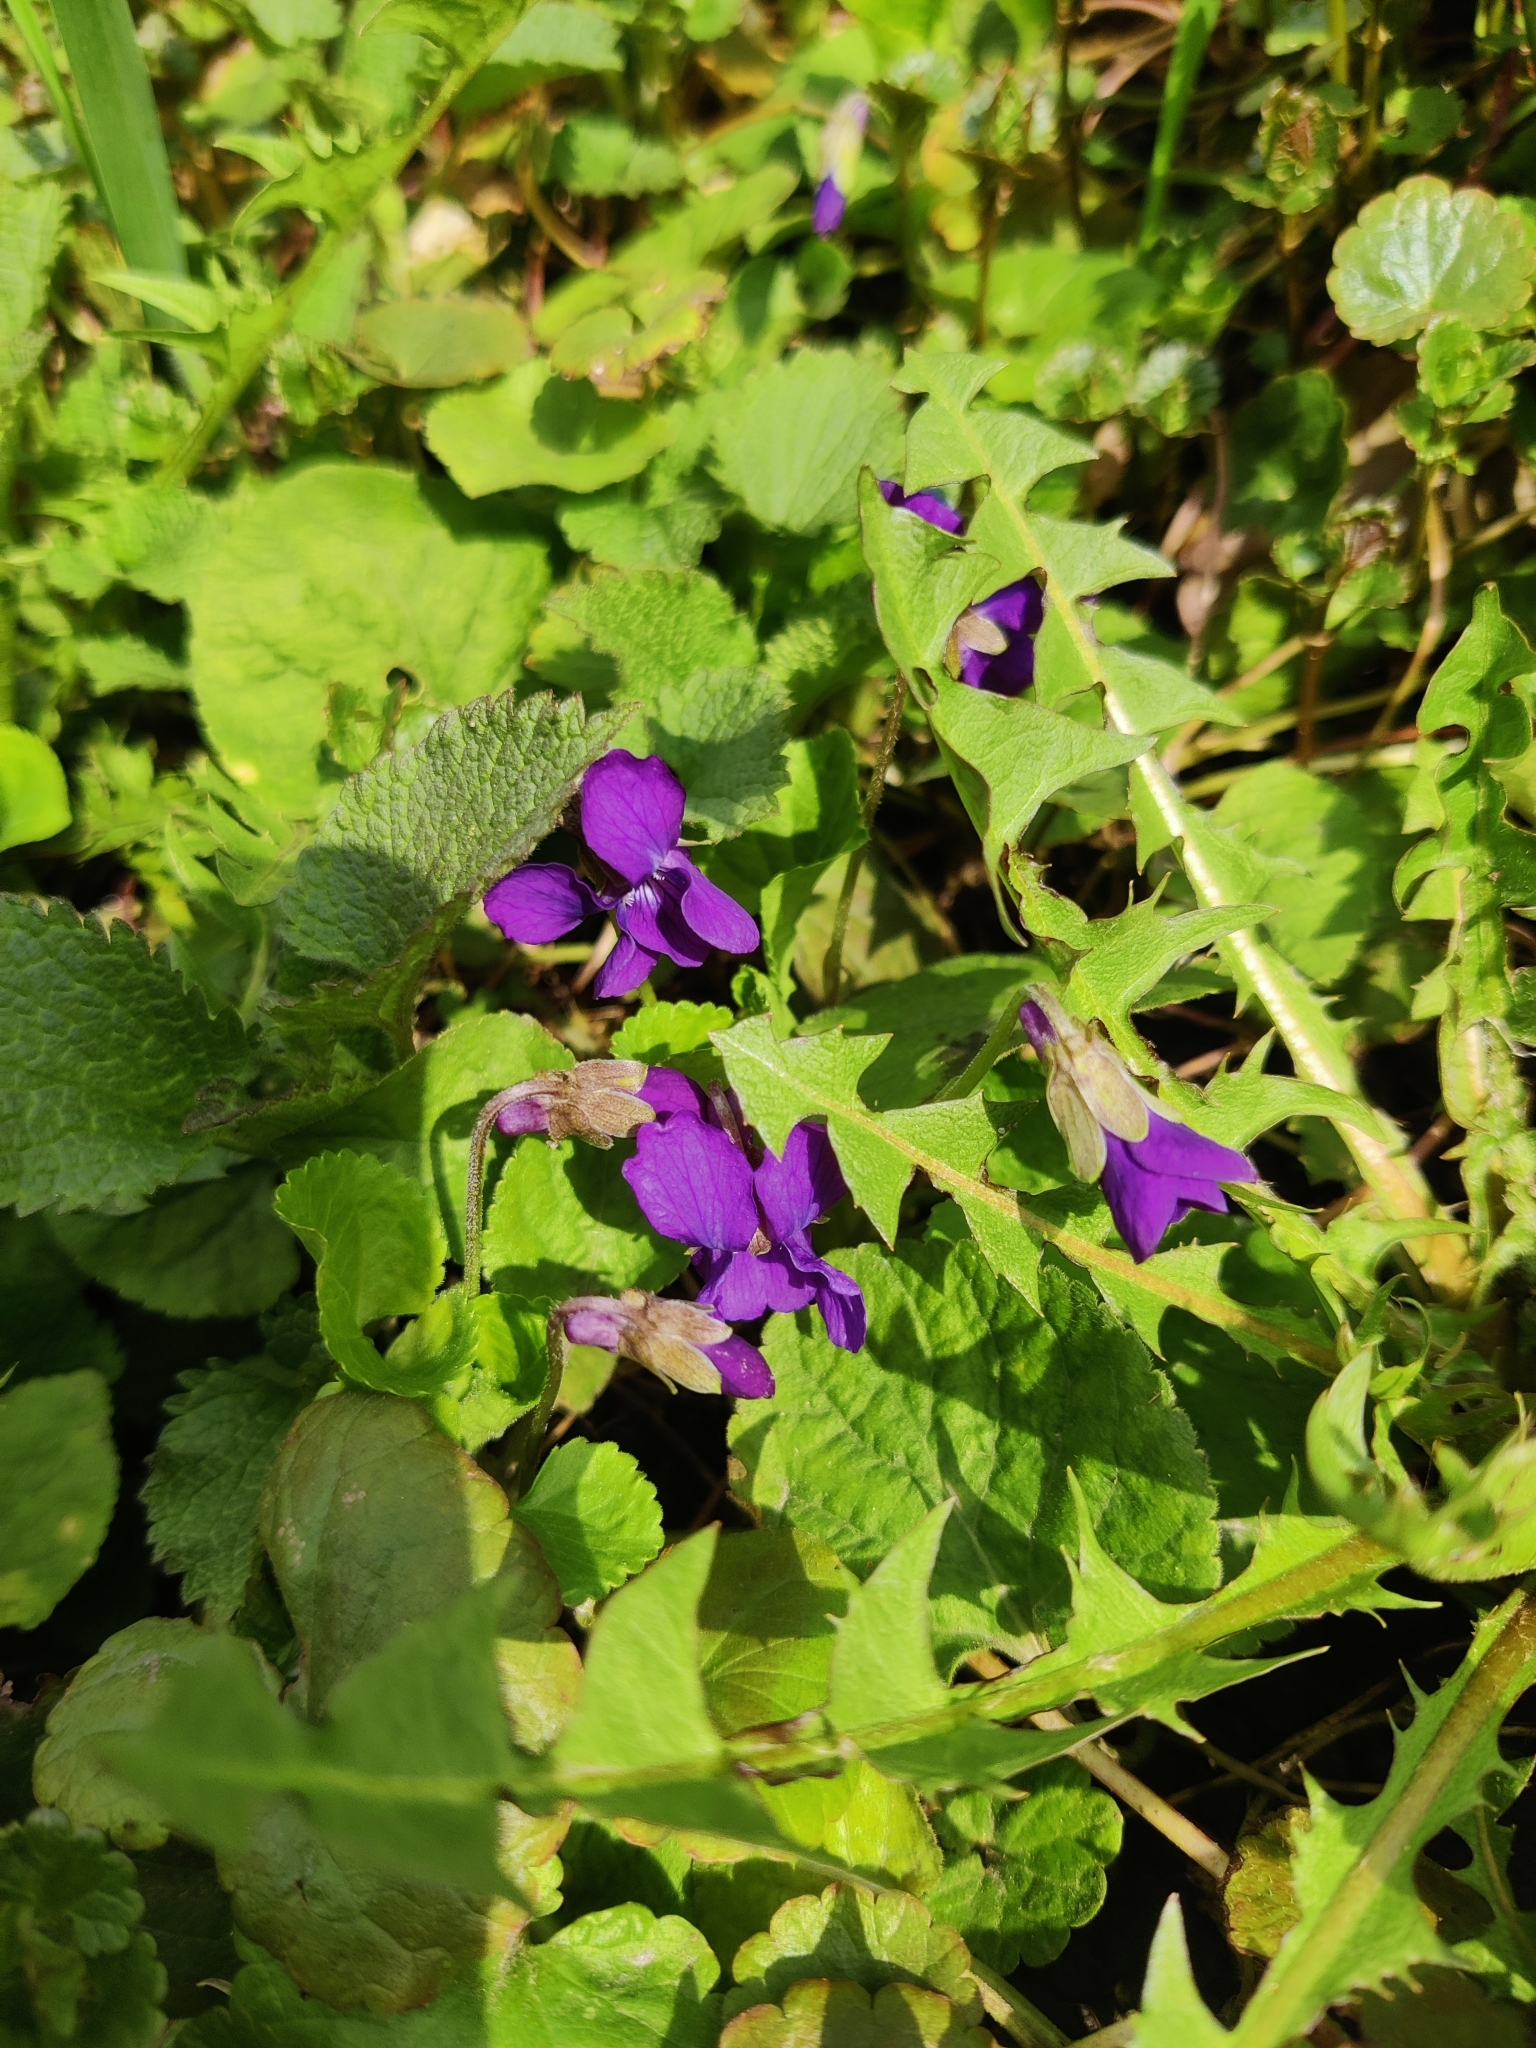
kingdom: Plantae
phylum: Tracheophyta
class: Magnoliopsida
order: Malpighiales
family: Violaceae
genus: Viola
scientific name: Viola odorata
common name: Sweet violet
